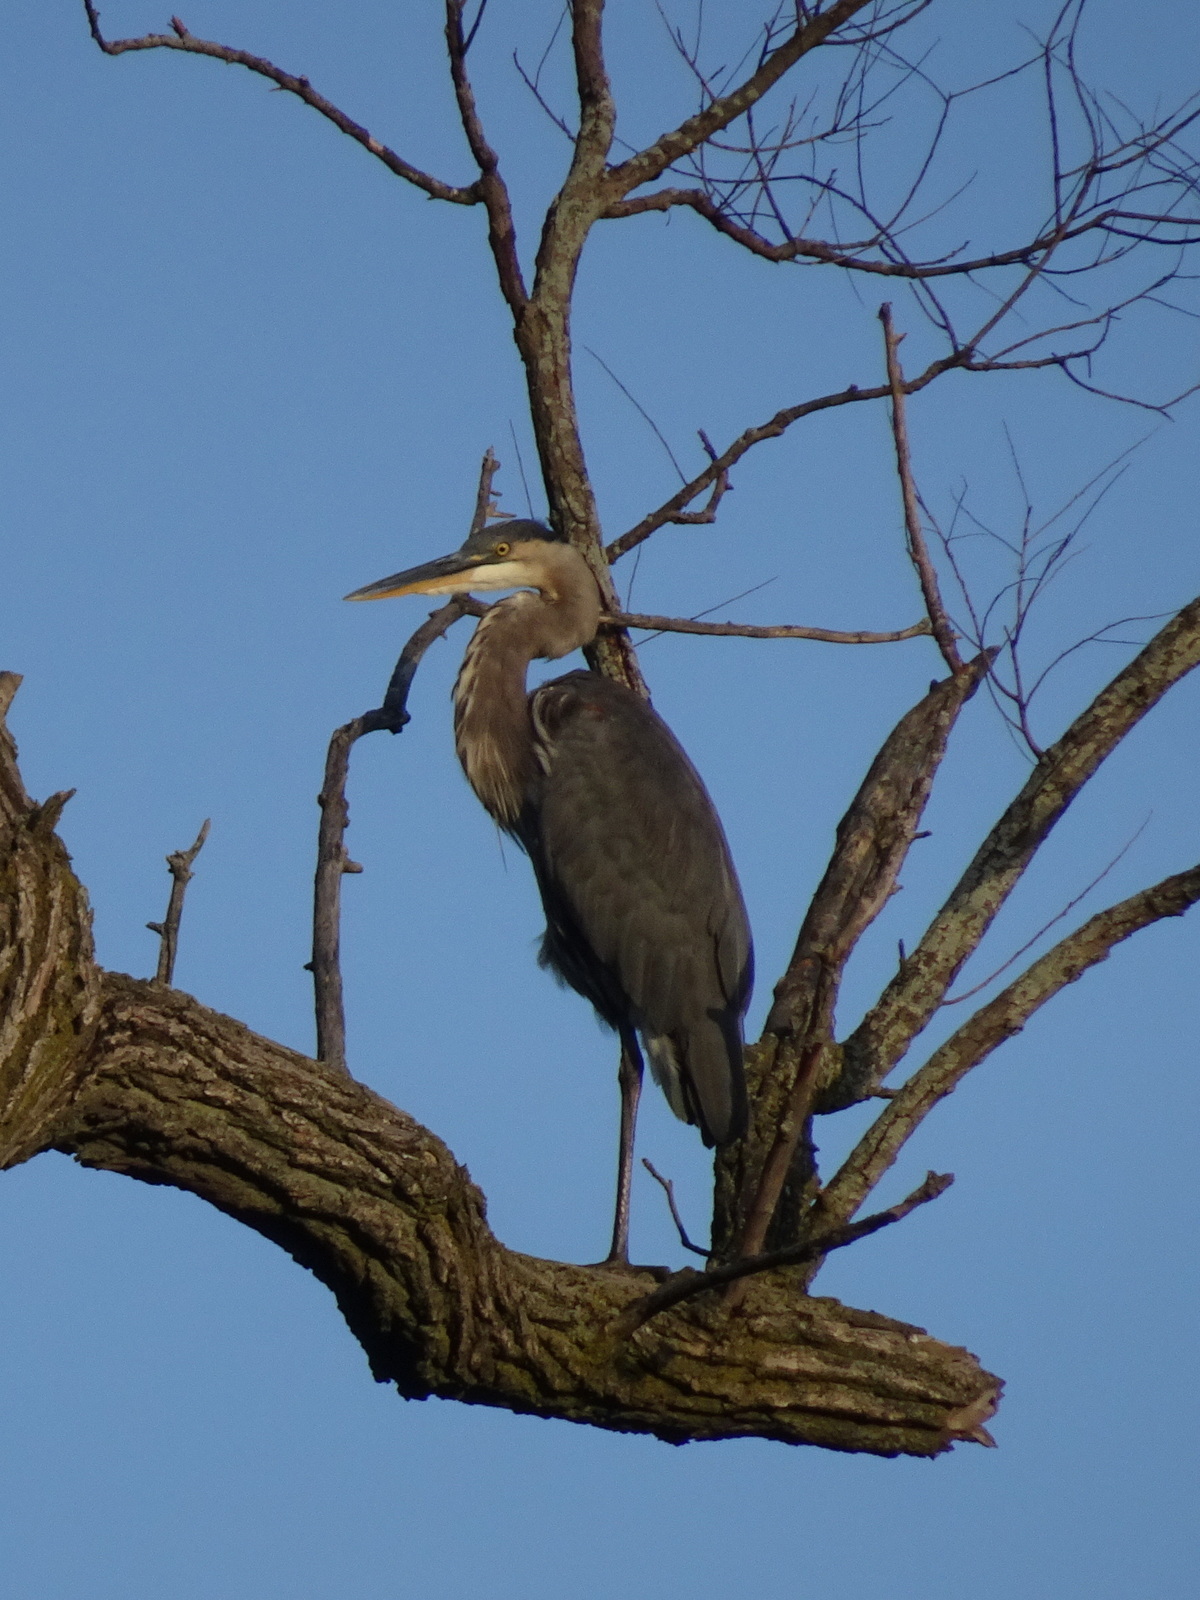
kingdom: Animalia
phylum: Chordata
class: Aves
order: Pelecaniformes
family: Ardeidae
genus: Ardea
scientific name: Ardea herodias
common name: Great blue heron
